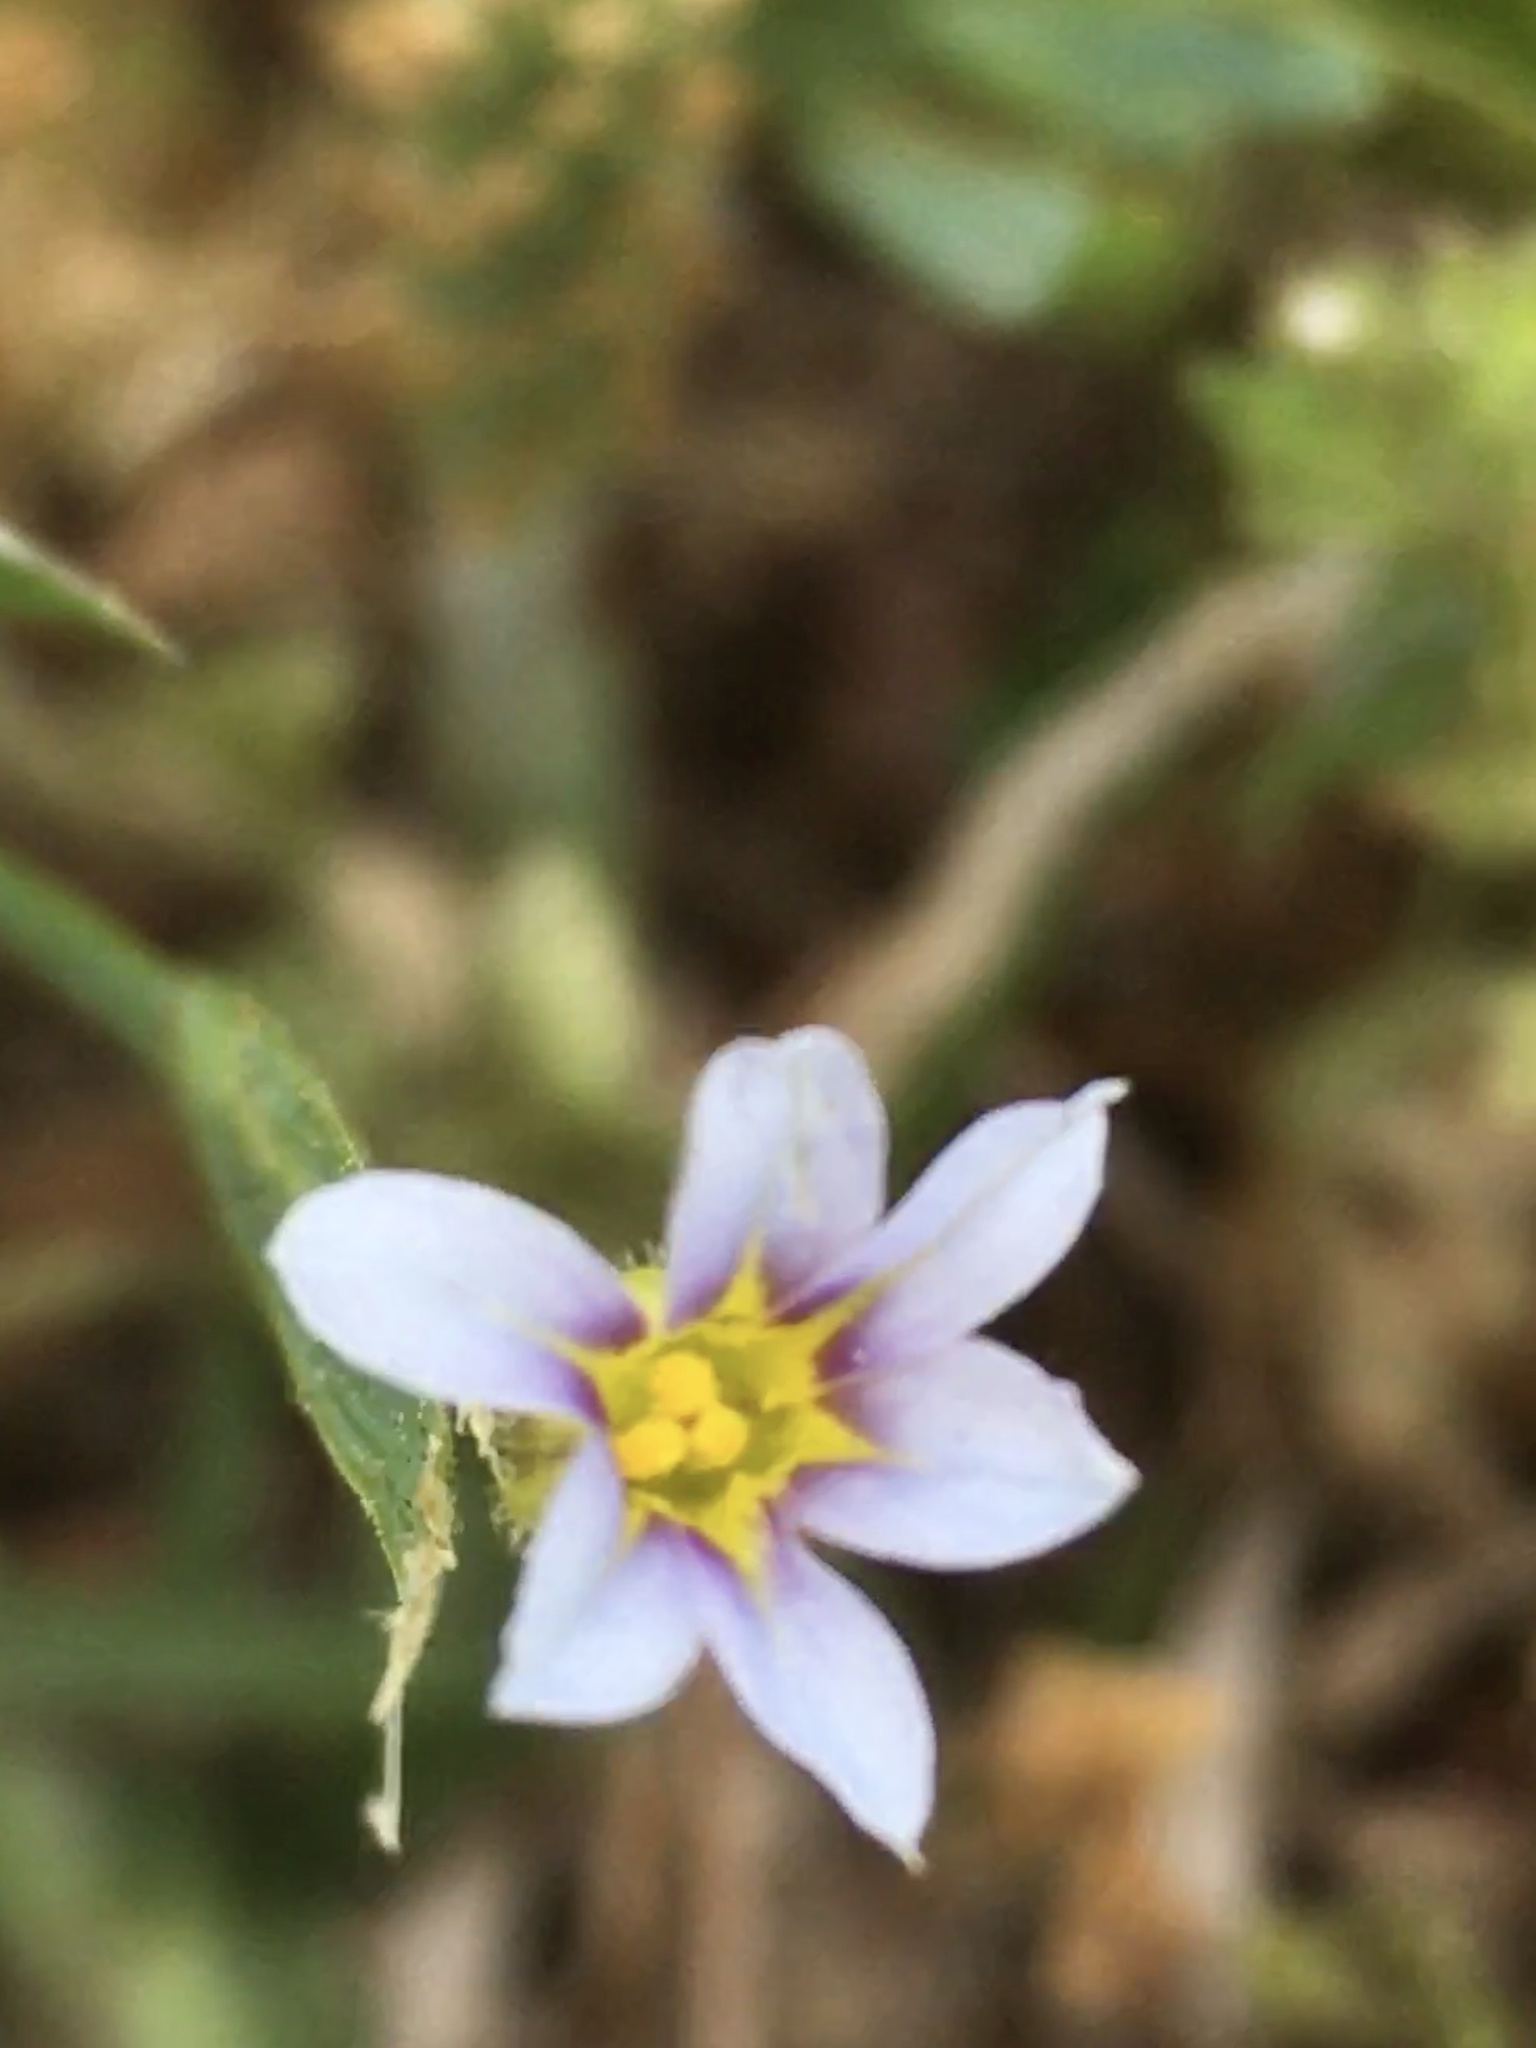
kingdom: Plantae
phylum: Tracheophyta
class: Liliopsida
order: Asparagales
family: Iridaceae
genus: Sisyrinchium
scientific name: Sisyrinchium micranthum
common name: Bermuda pigroot
